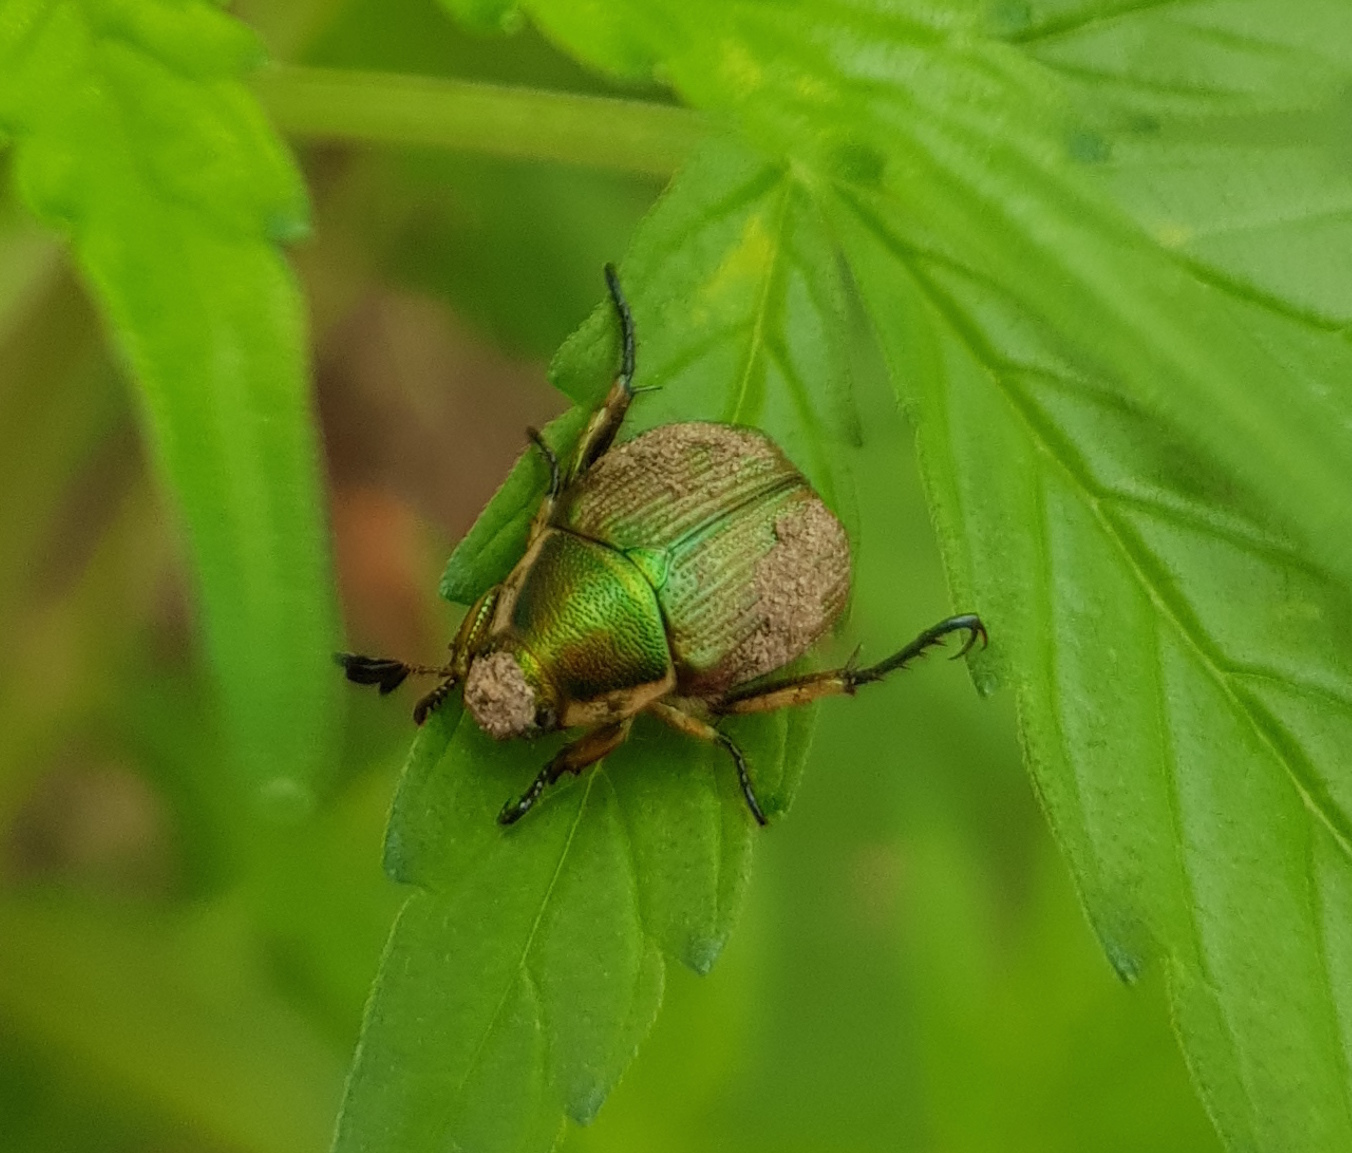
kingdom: Animalia
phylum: Arthropoda
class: Insecta
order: Coleoptera
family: Scarabaeidae
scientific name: Scarabaeidae
